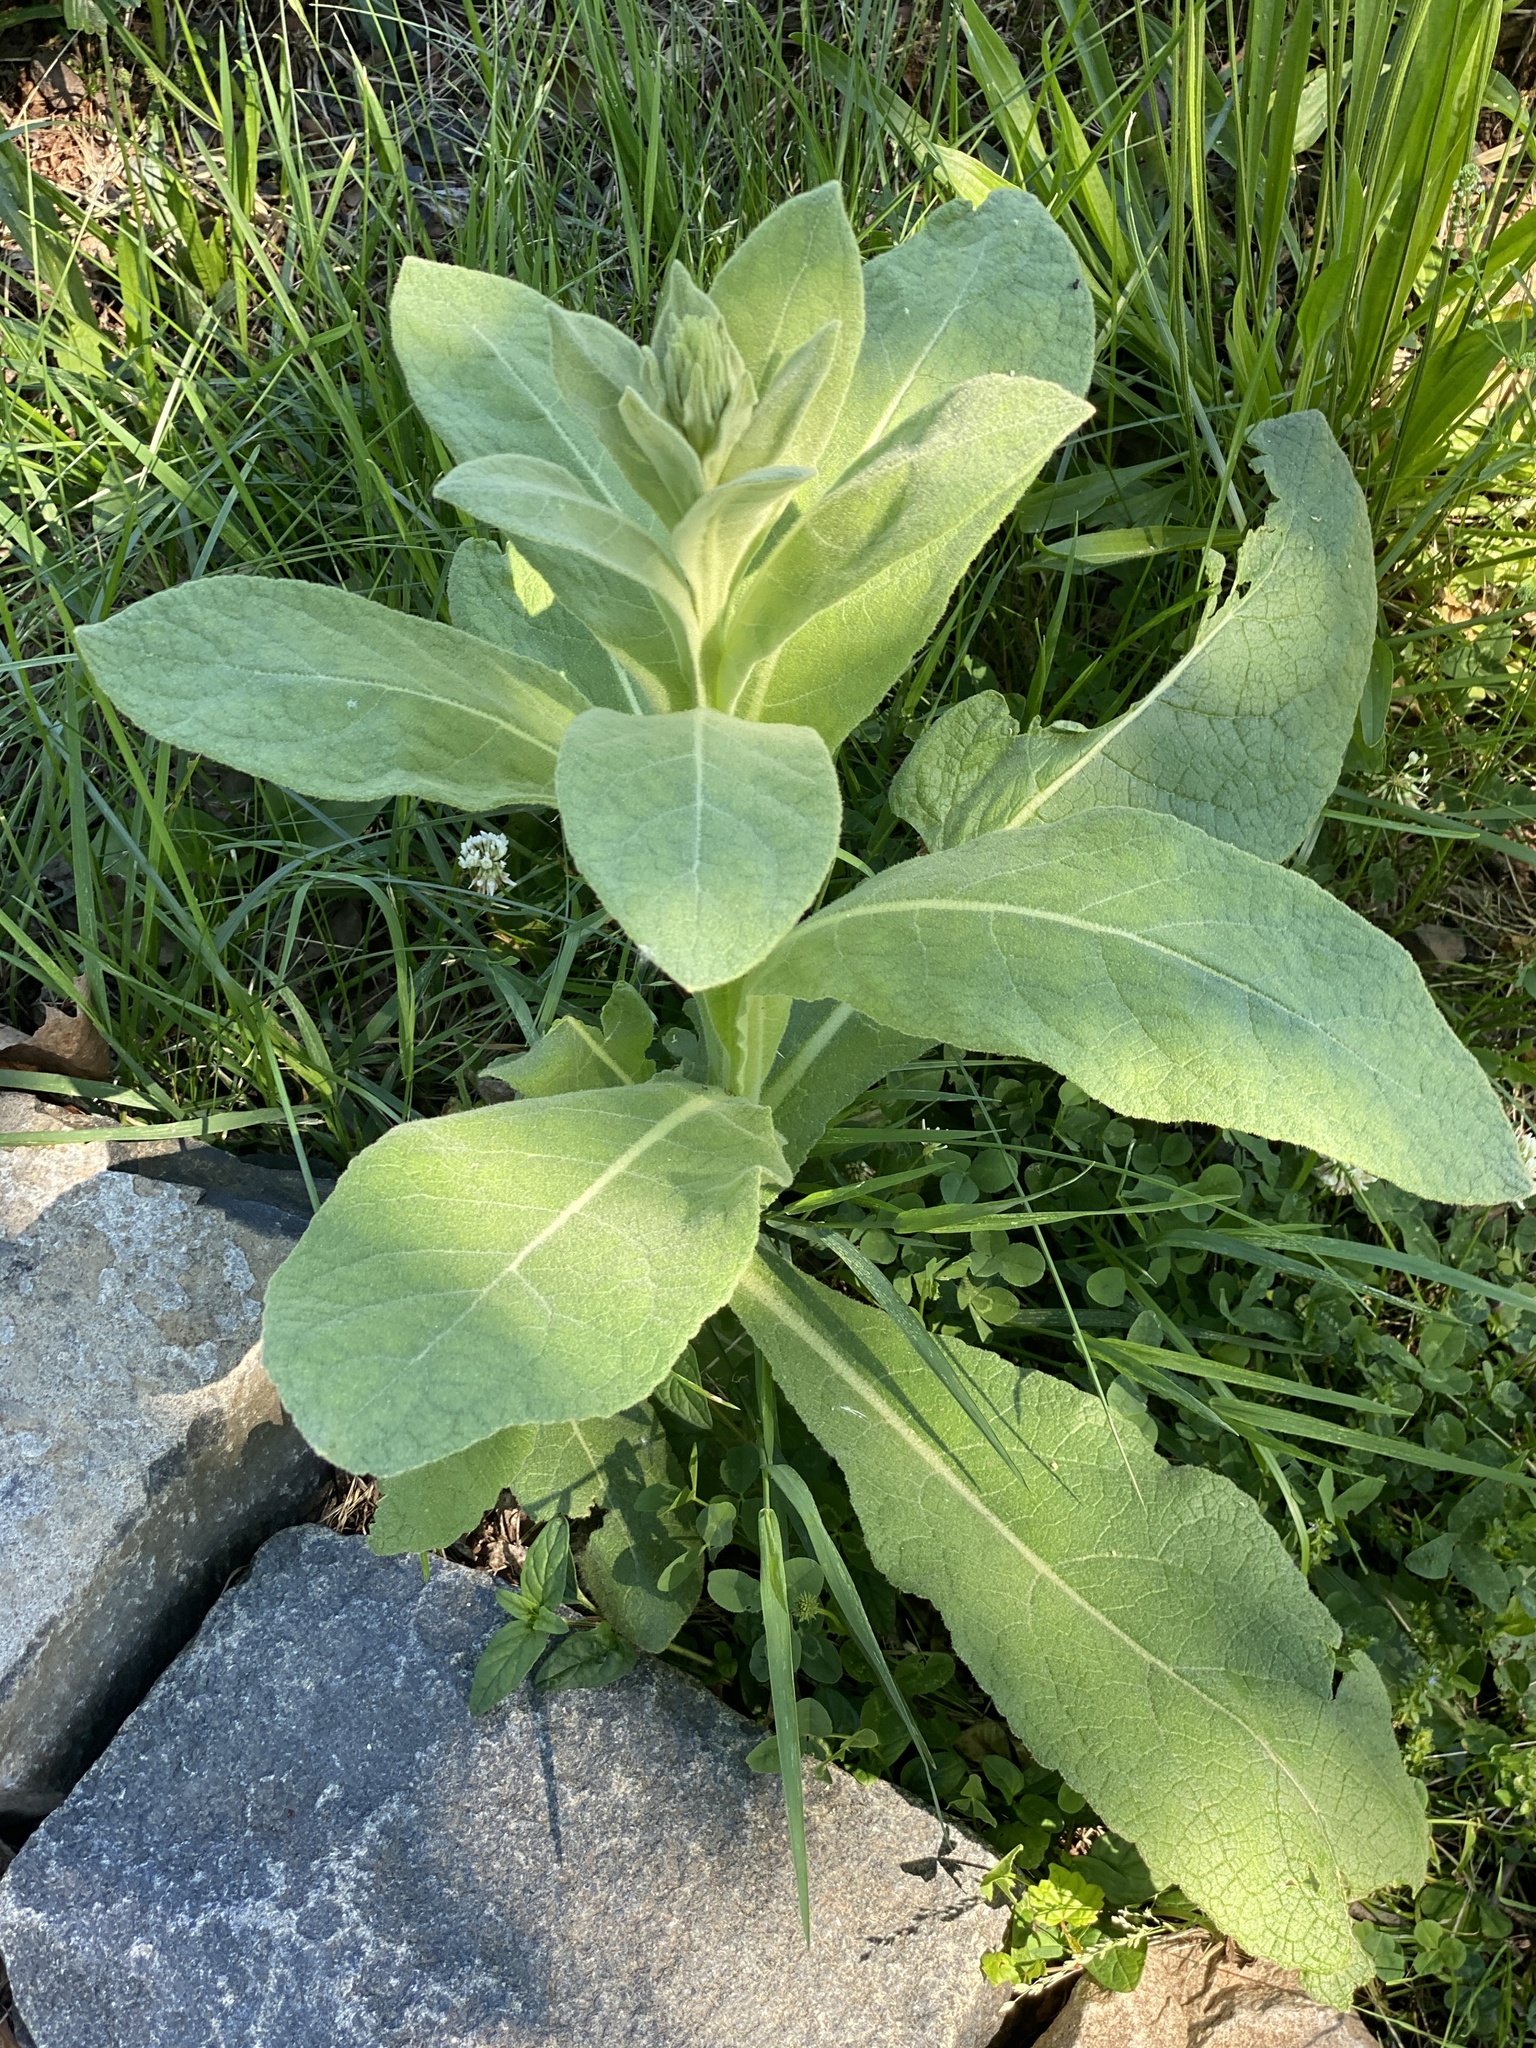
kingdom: Plantae
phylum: Tracheophyta
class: Magnoliopsida
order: Lamiales
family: Scrophulariaceae
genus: Verbascum
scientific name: Verbascum thapsus
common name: Common mullein
